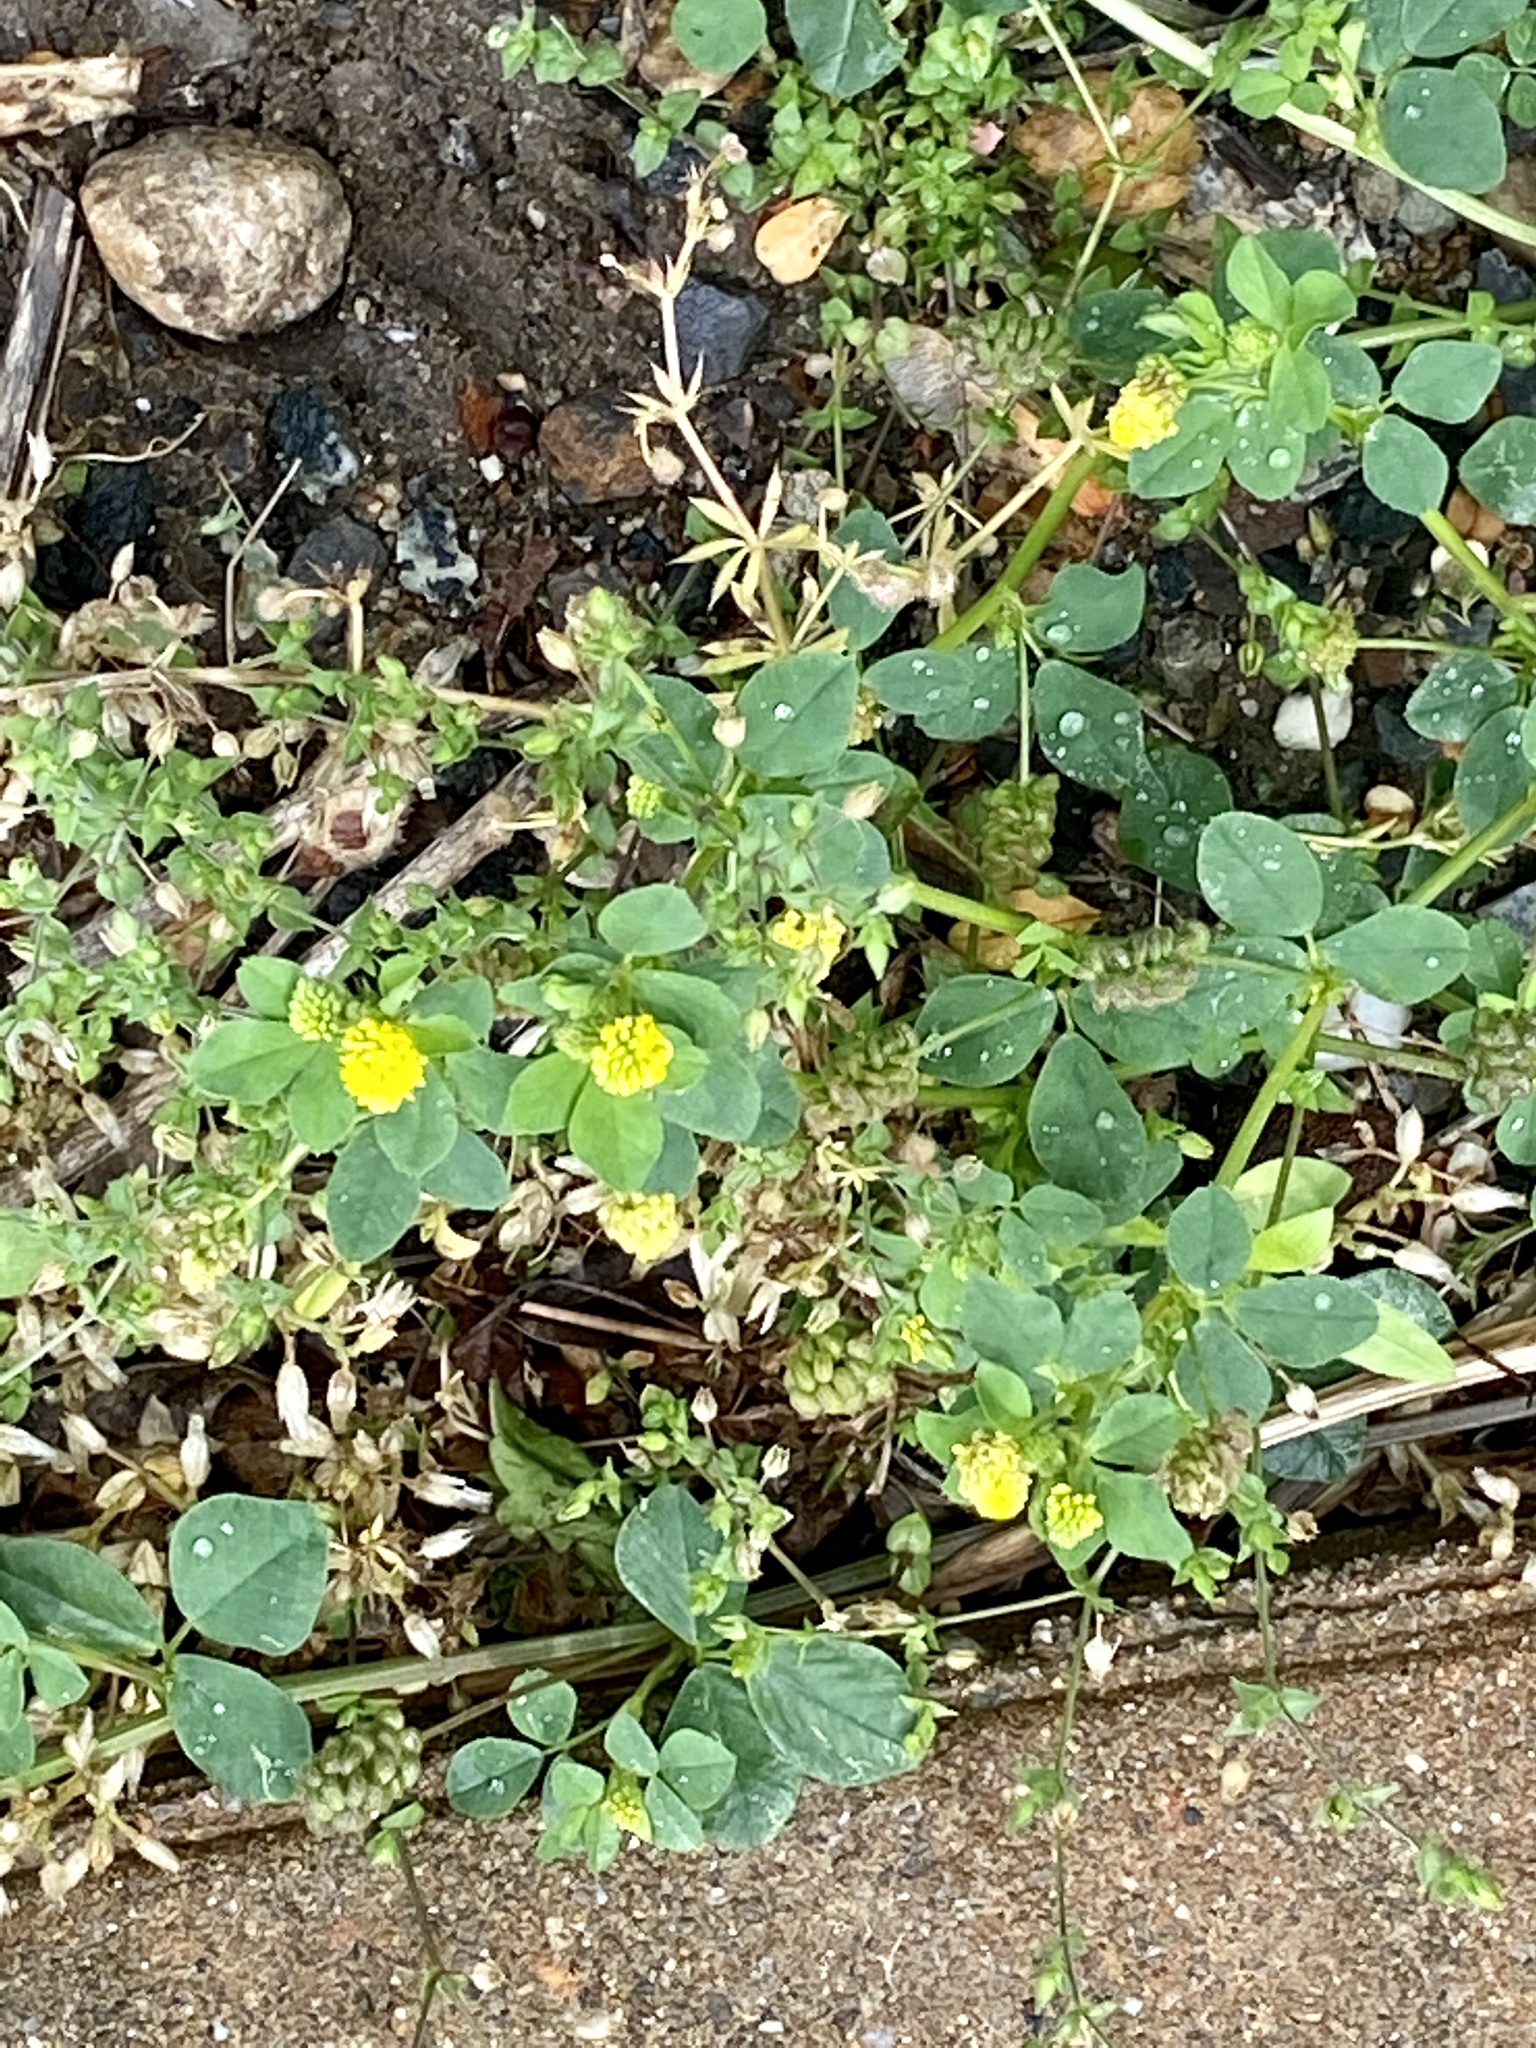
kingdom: Plantae
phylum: Tracheophyta
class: Magnoliopsida
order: Fabales
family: Fabaceae
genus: Medicago
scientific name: Medicago lupulina
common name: Black medick
